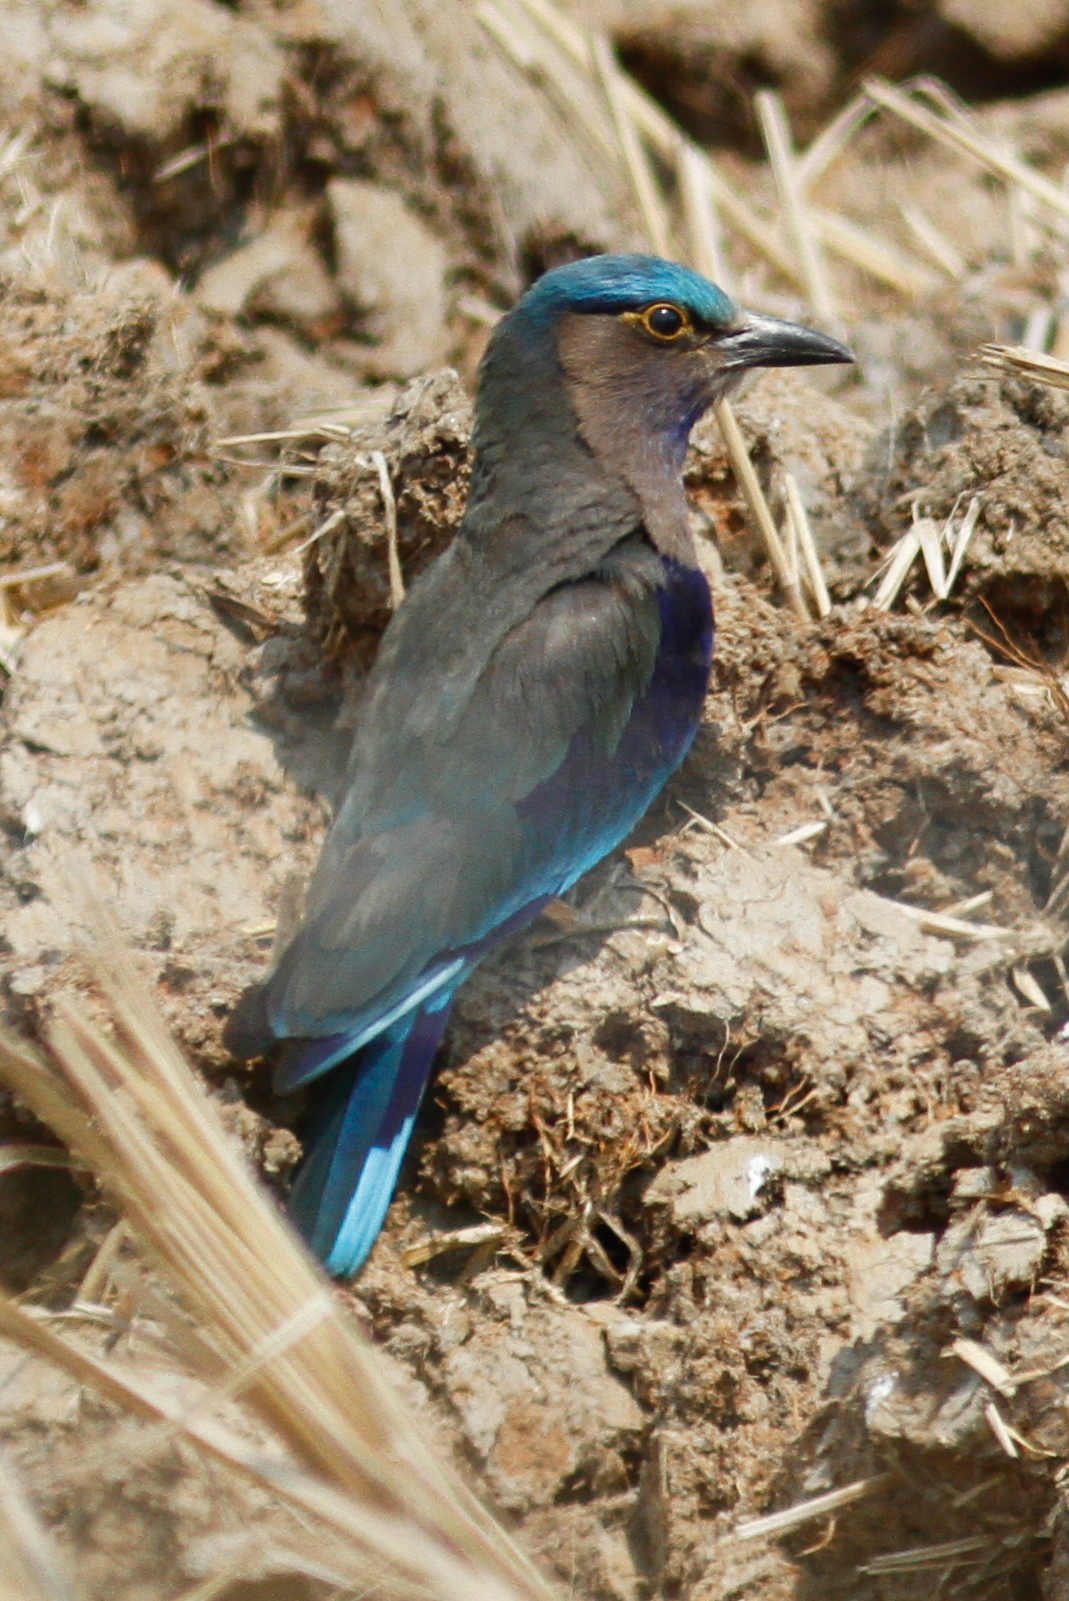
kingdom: Animalia
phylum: Chordata
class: Aves
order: Coraciiformes
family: Coraciidae
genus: Coracias
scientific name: Coracias affinis
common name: Indochinese roller
